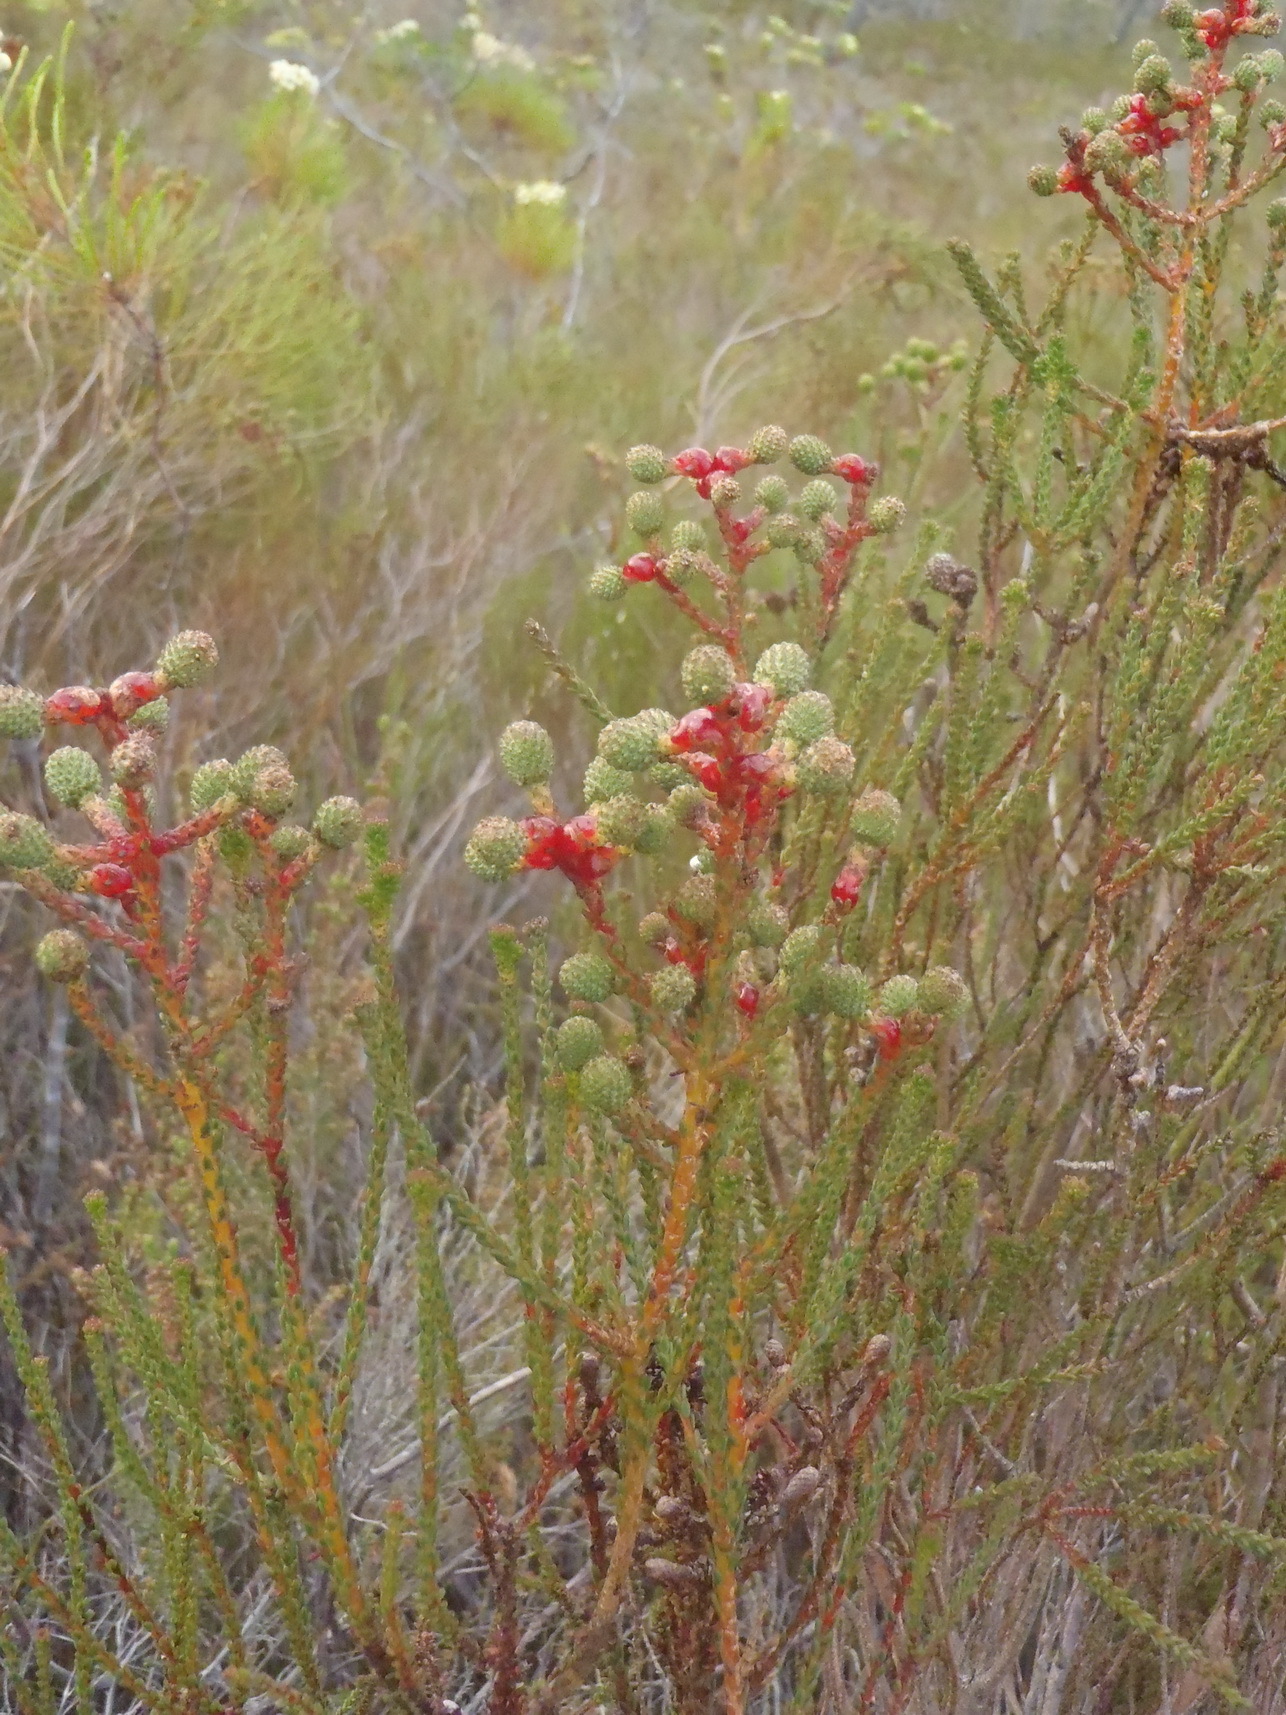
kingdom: Plantae
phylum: Tracheophyta
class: Magnoliopsida
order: Bruniales
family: Bruniaceae
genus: Berzelia
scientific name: Berzelia abrotanoides
